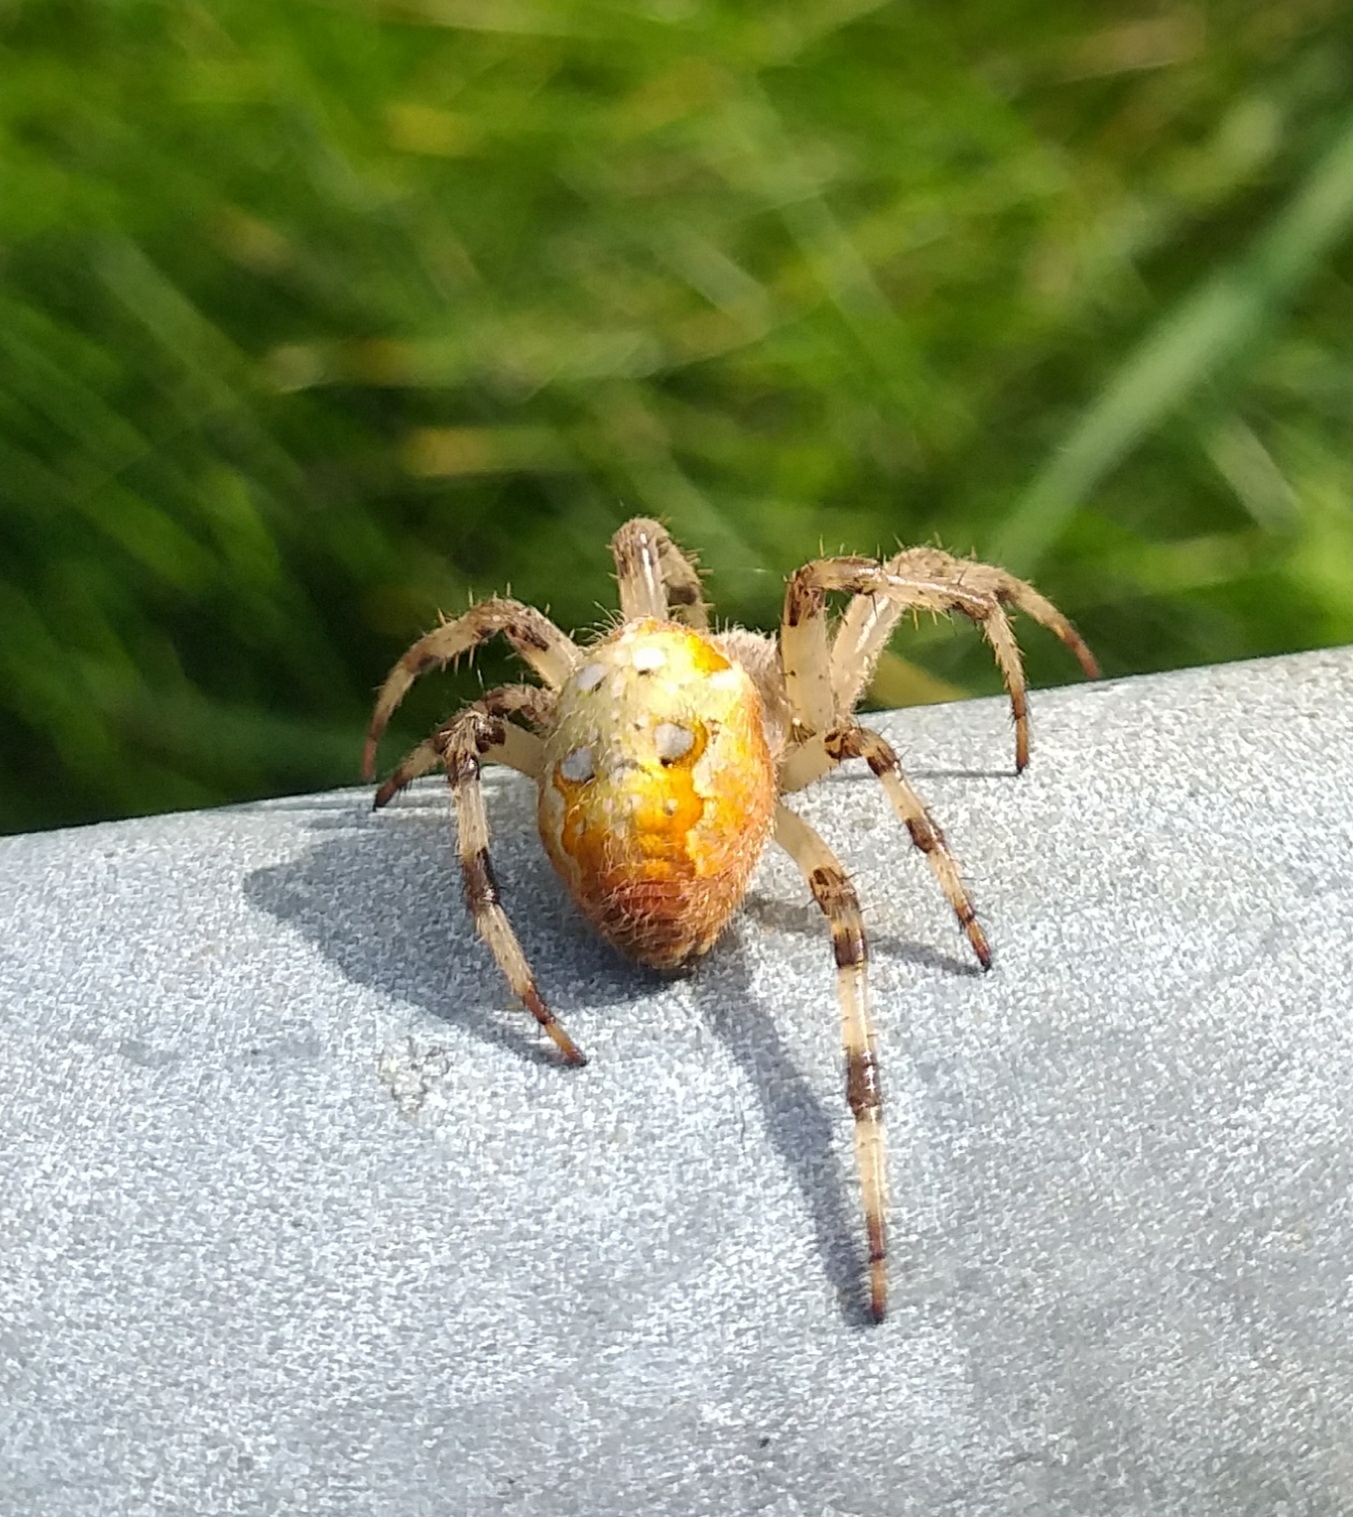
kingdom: Animalia
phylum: Arthropoda
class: Arachnida
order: Araneae
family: Araneidae
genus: Araneus
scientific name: Araneus quadratus
